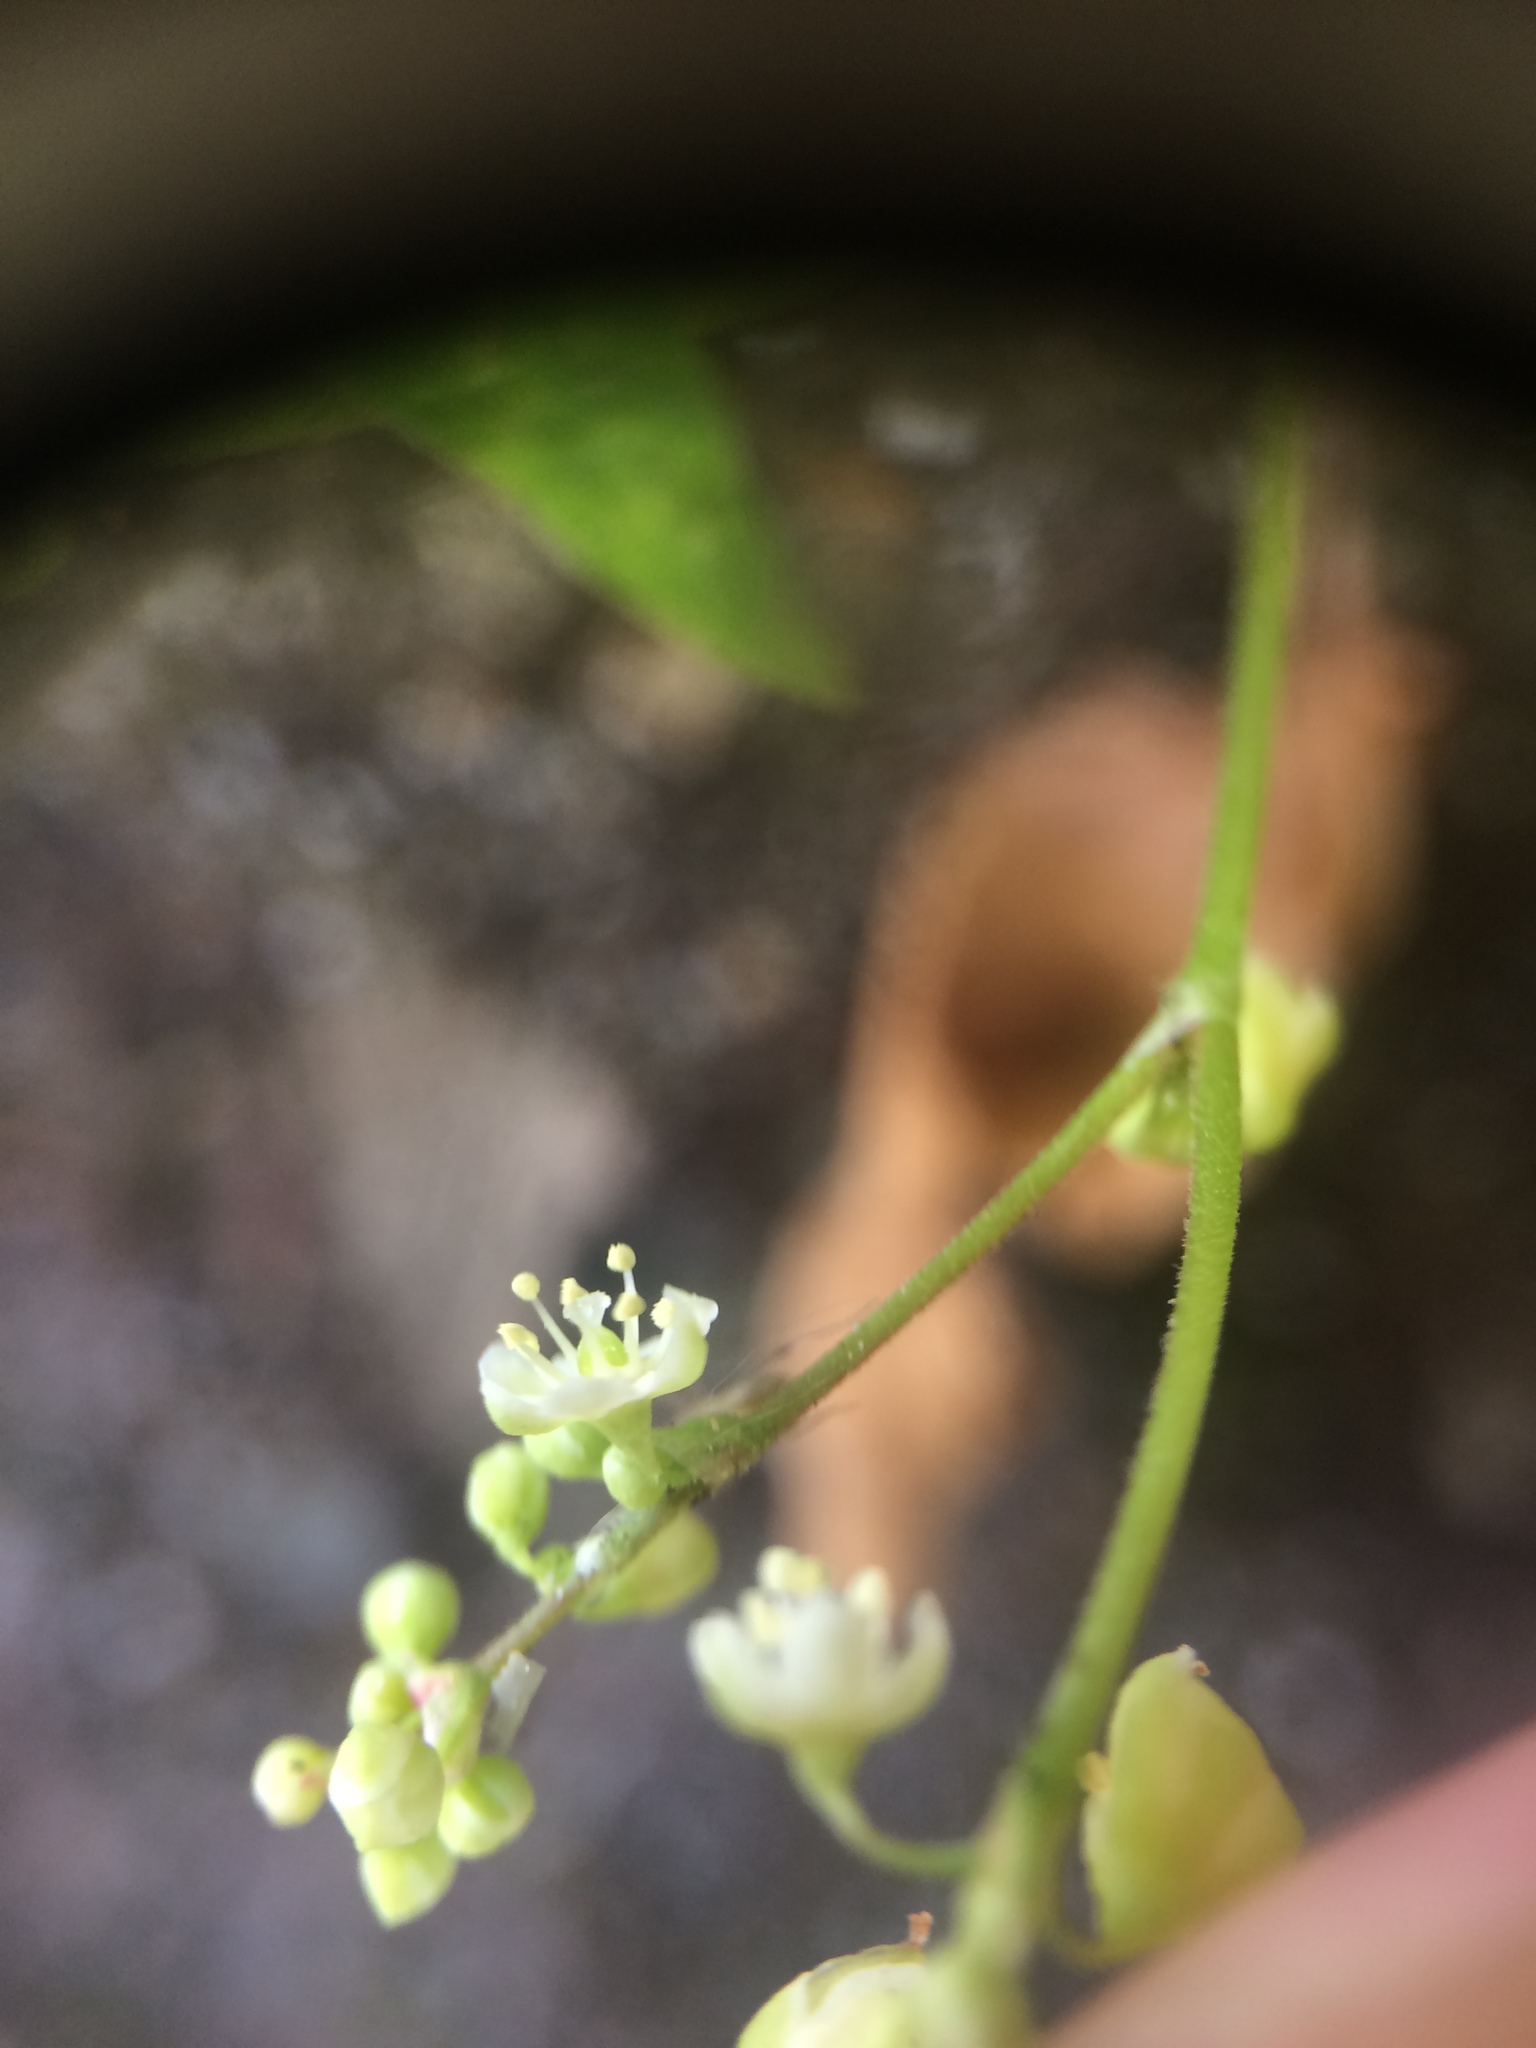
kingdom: Plantae
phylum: Tracheophyta
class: Magnoliopsida
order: Caryophyllales
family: Polygonaceae
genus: Parogonum
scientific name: Parogonum ciliinode
